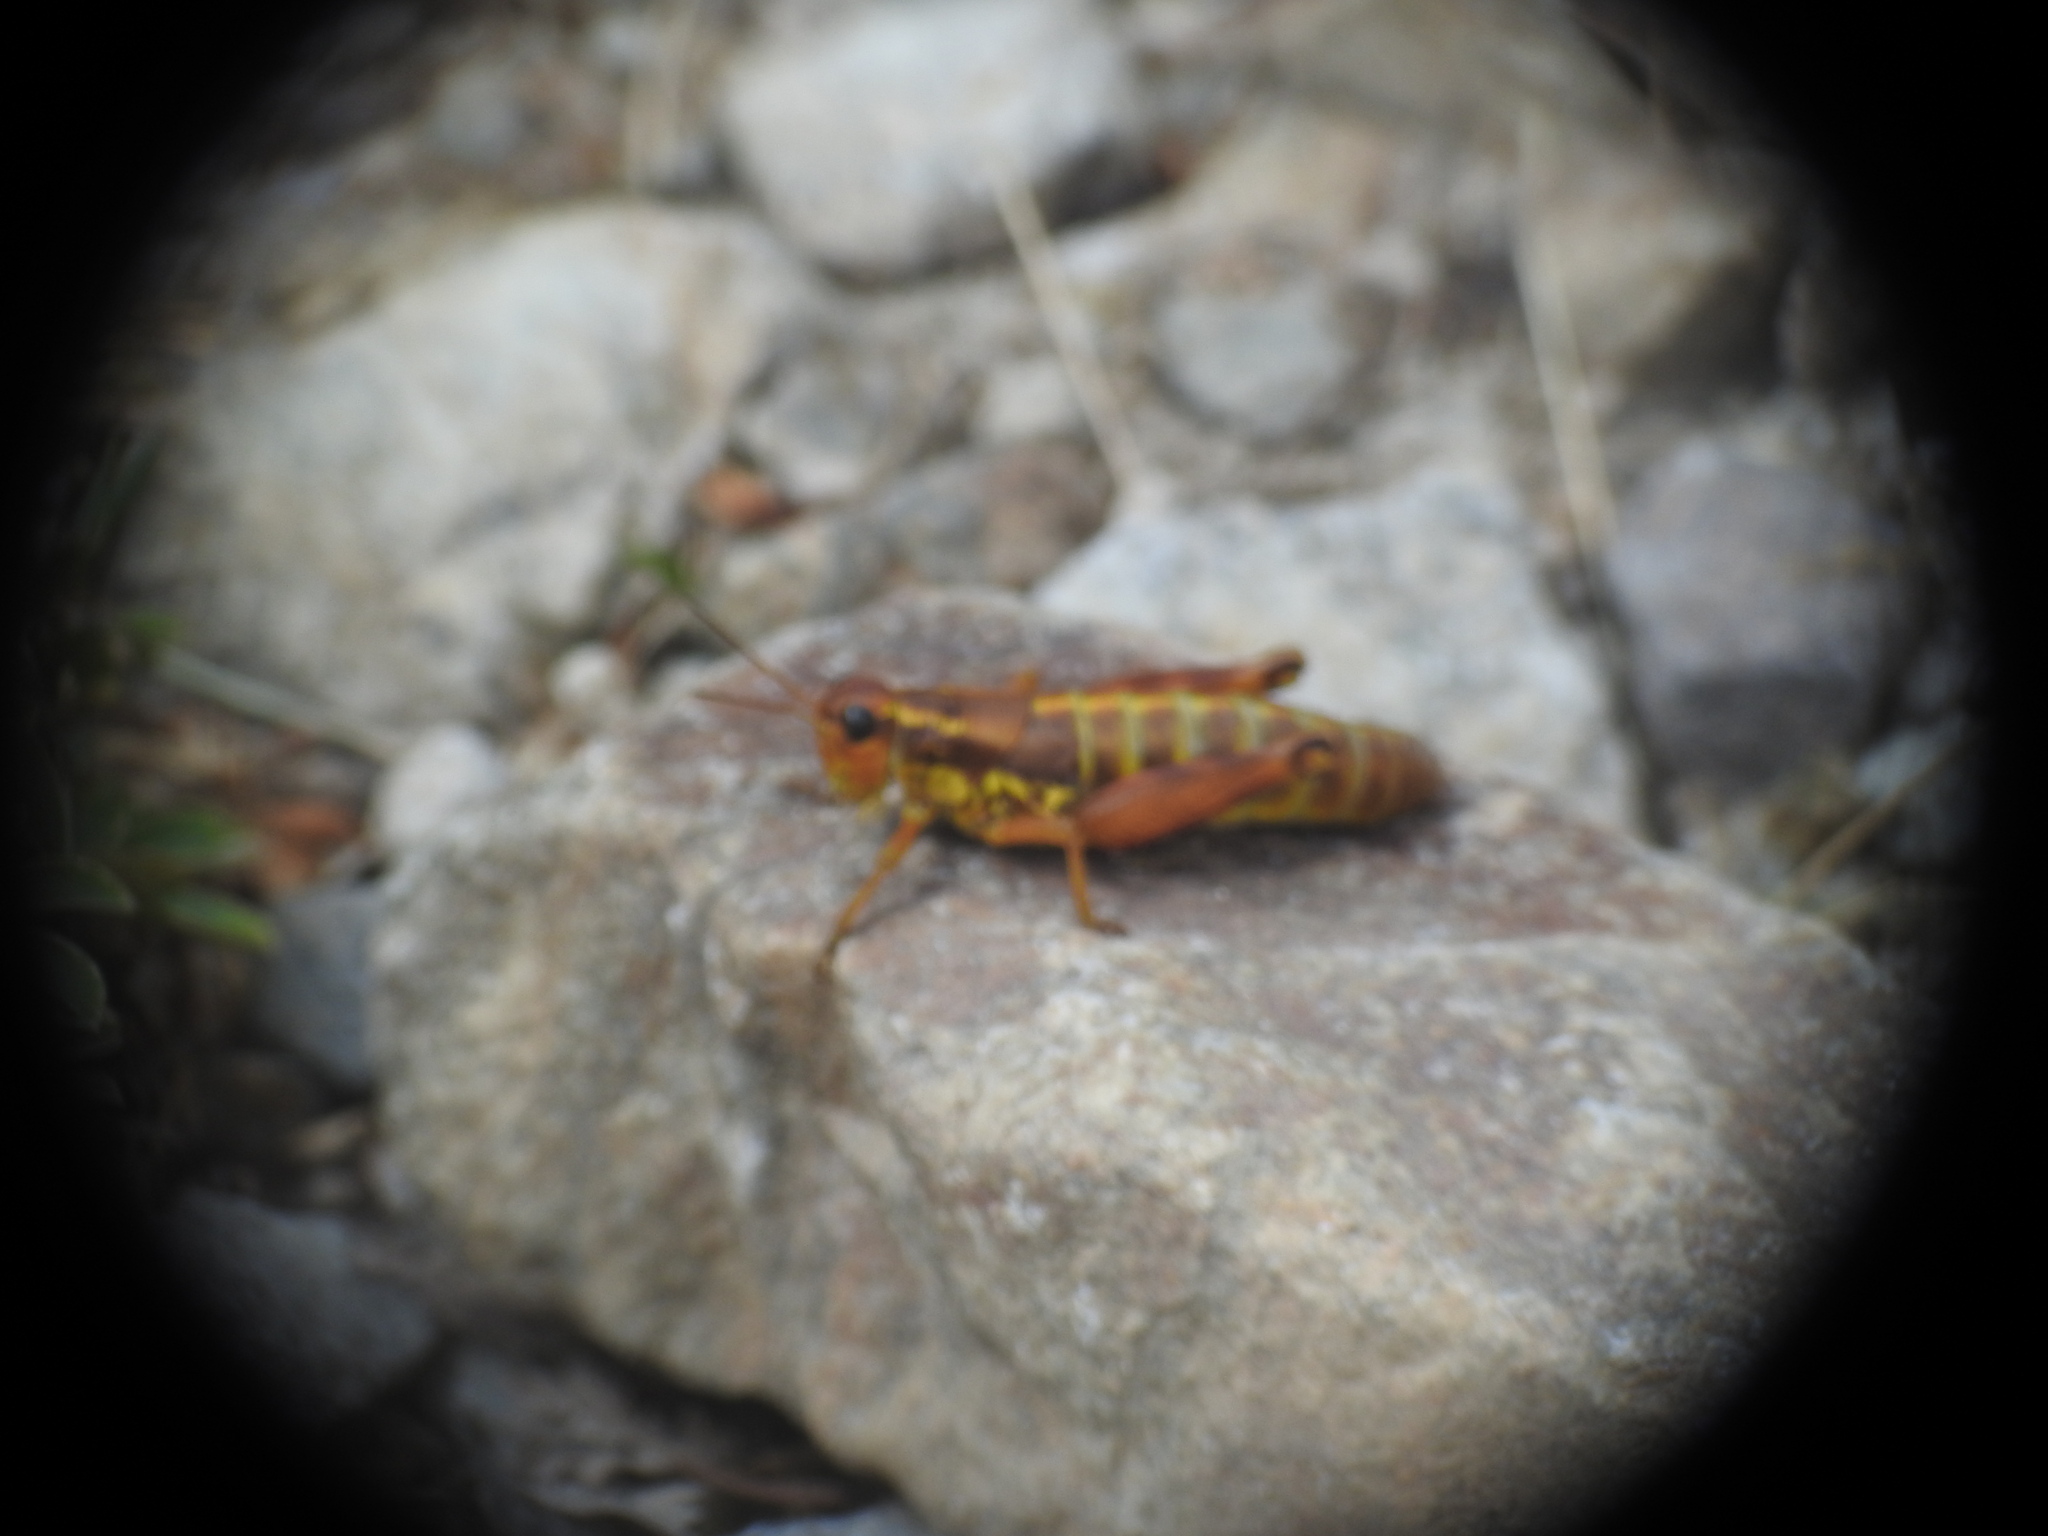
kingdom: Animalia
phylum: Arthropoda
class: Insecta
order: Orthoptera
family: Acrididae
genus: Podisma
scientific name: Podisma pedestris
